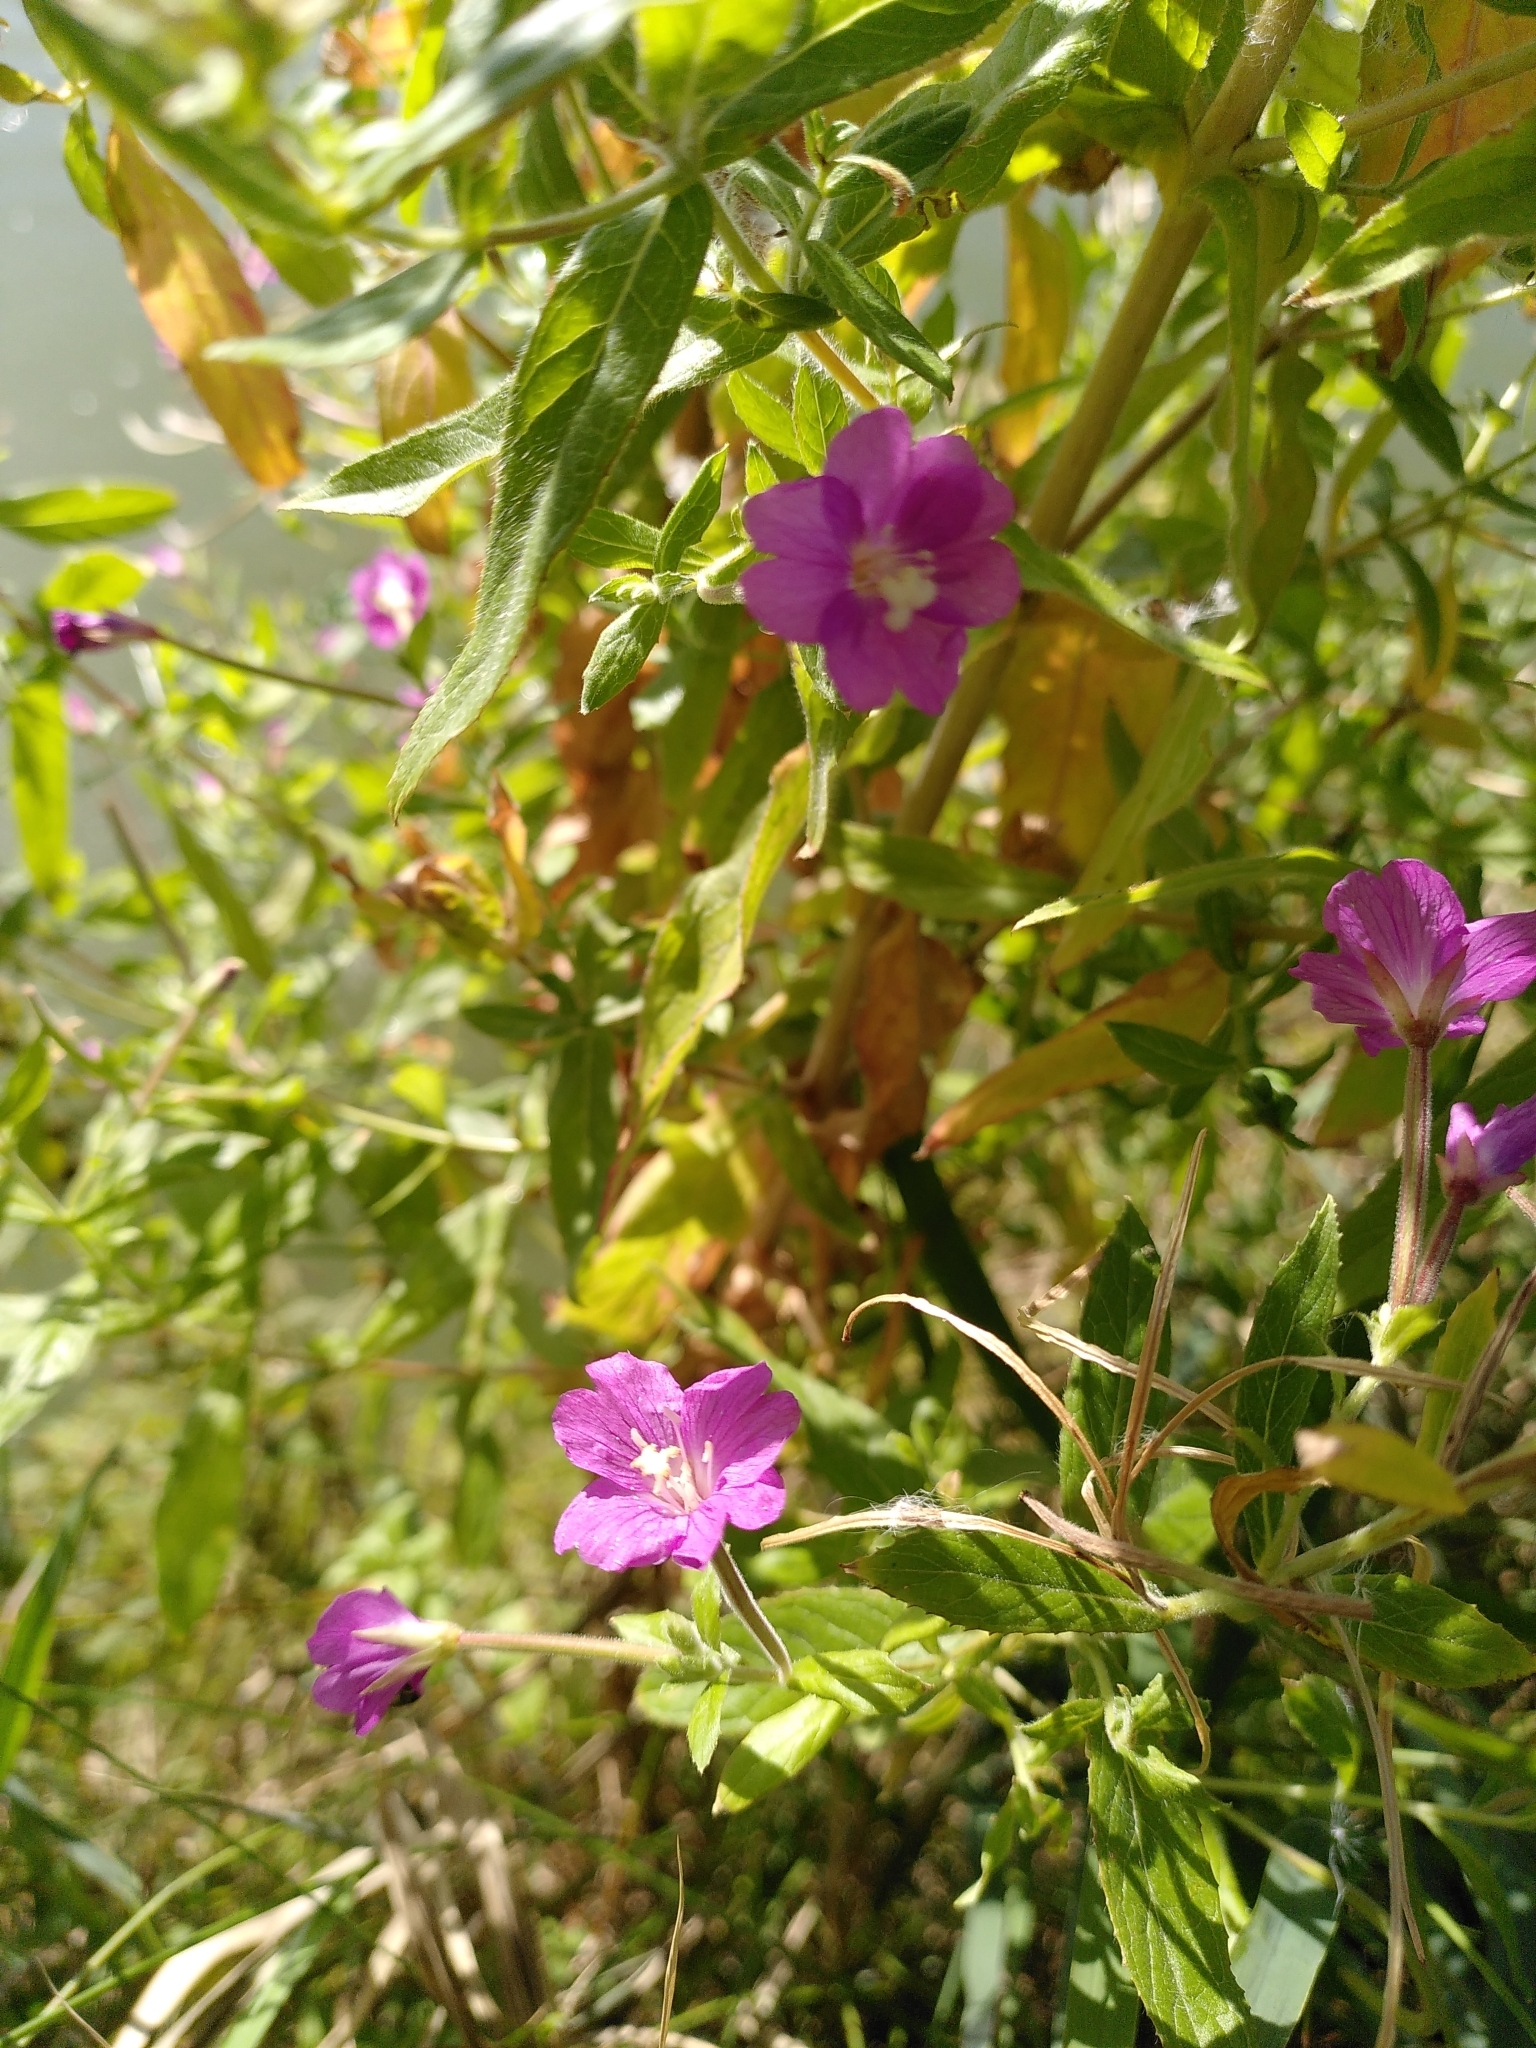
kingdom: Plantae
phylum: Tracheophyta
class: Magnoliopsida
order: Myrtales
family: Onagraceae
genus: Epilobium
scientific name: Epilobium hirsutum
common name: Great willowherb
